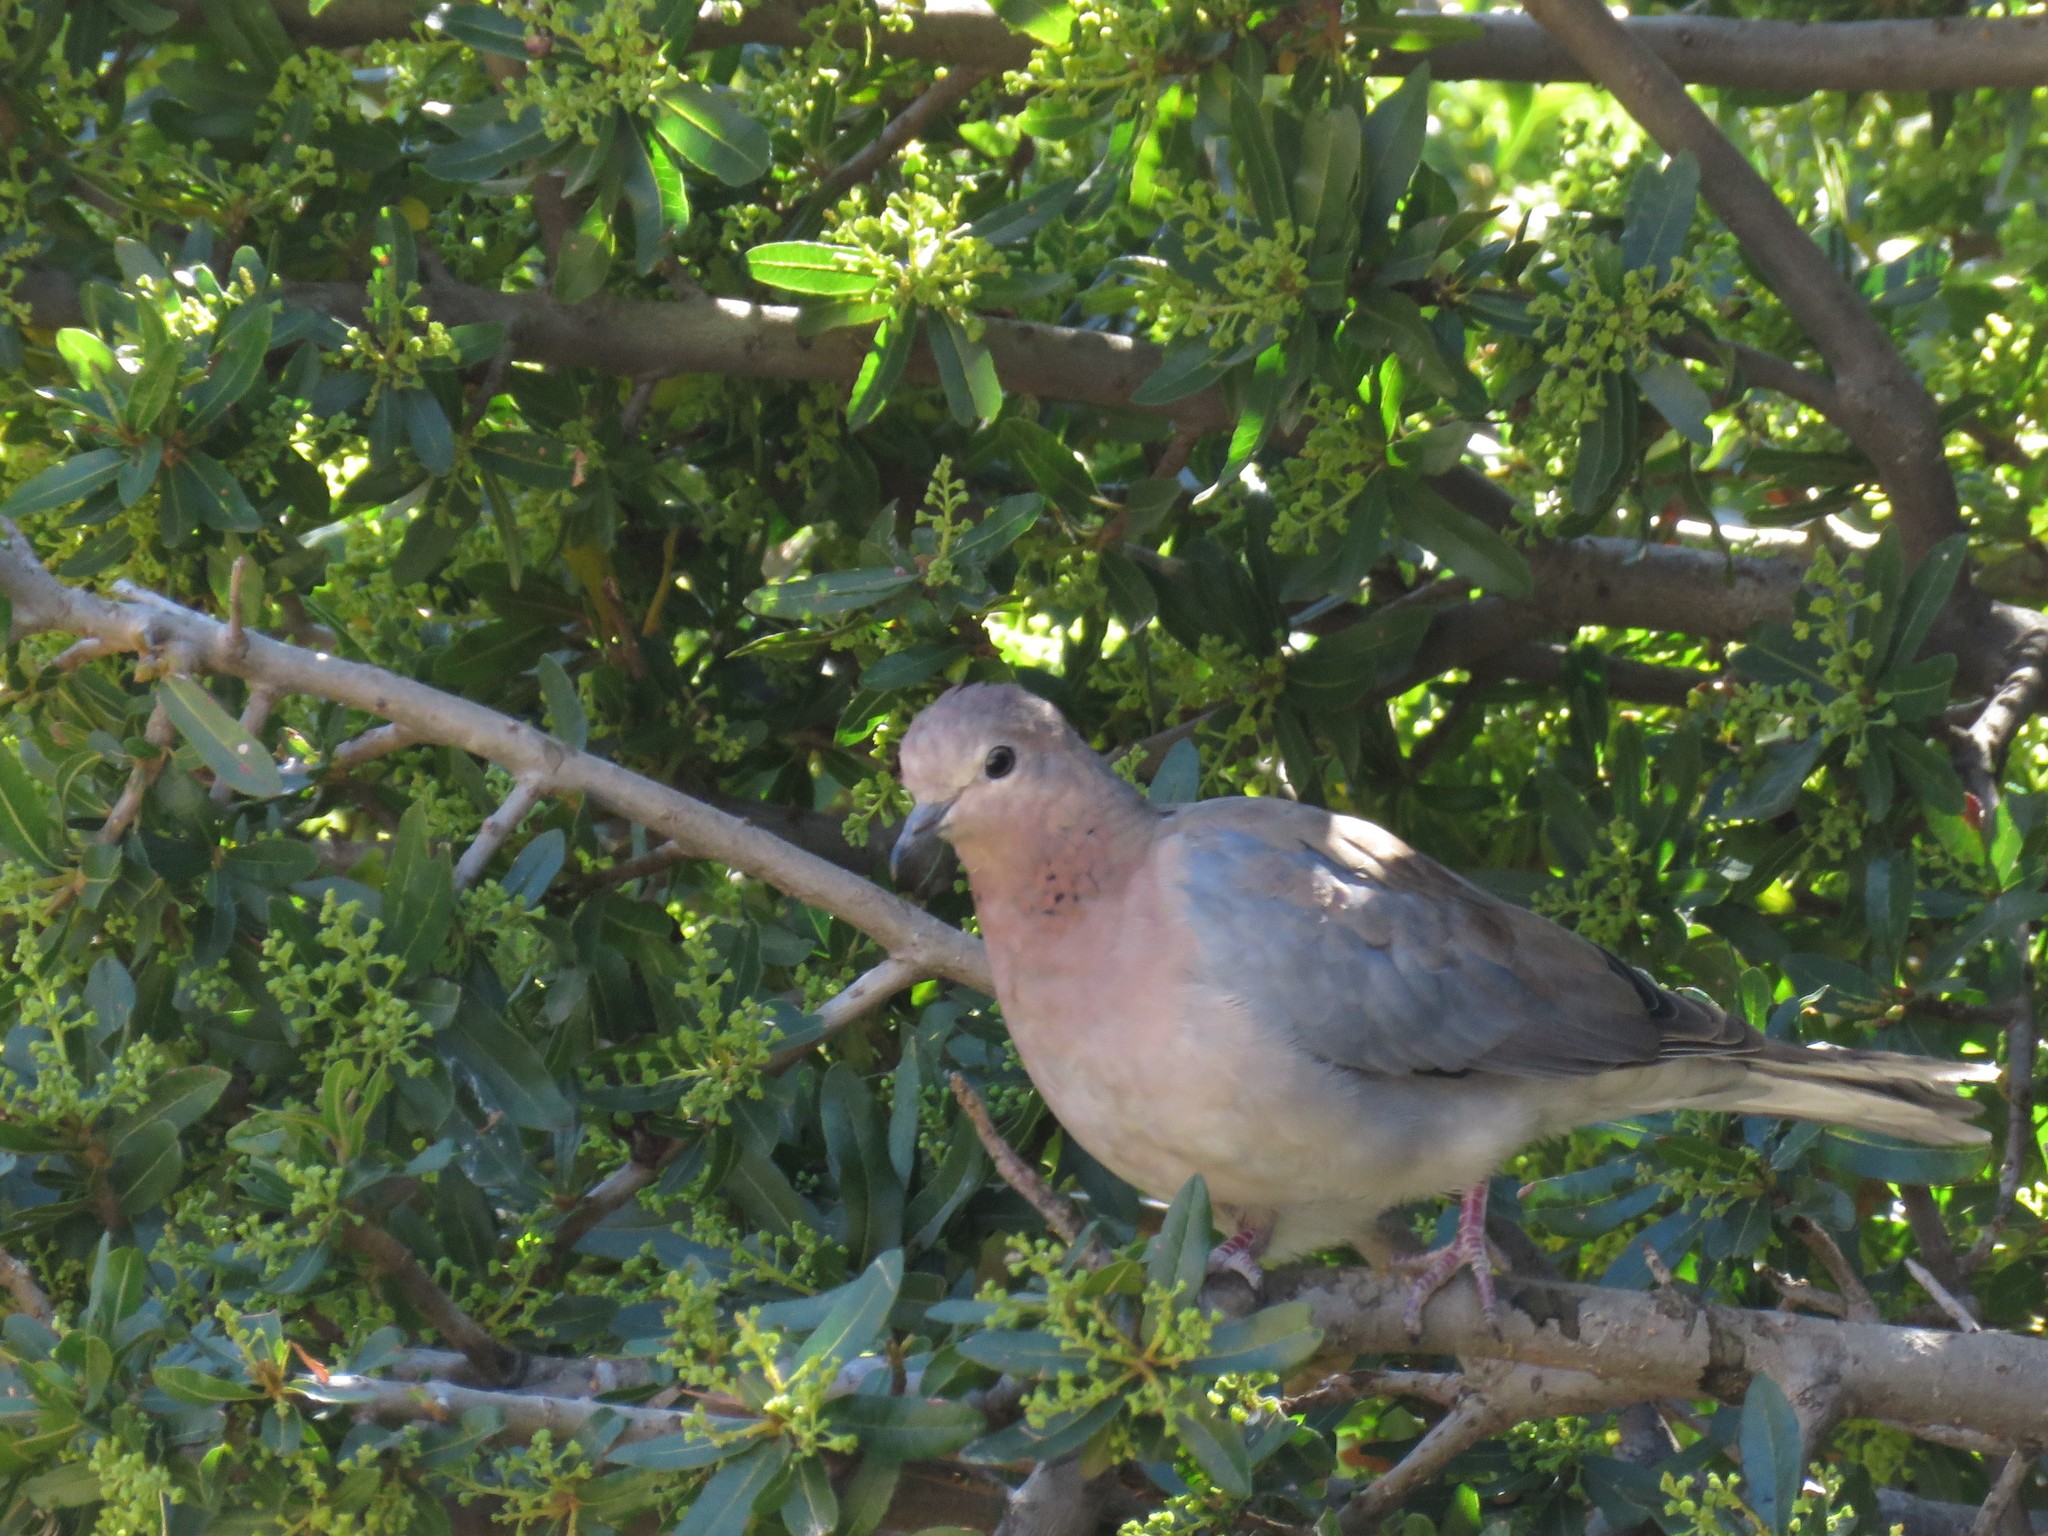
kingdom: Animalia
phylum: Chordata
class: Aves
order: Columbiformes
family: Columbidae
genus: Spilopelia
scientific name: Spilopelia senegalensis
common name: Laughing dove
